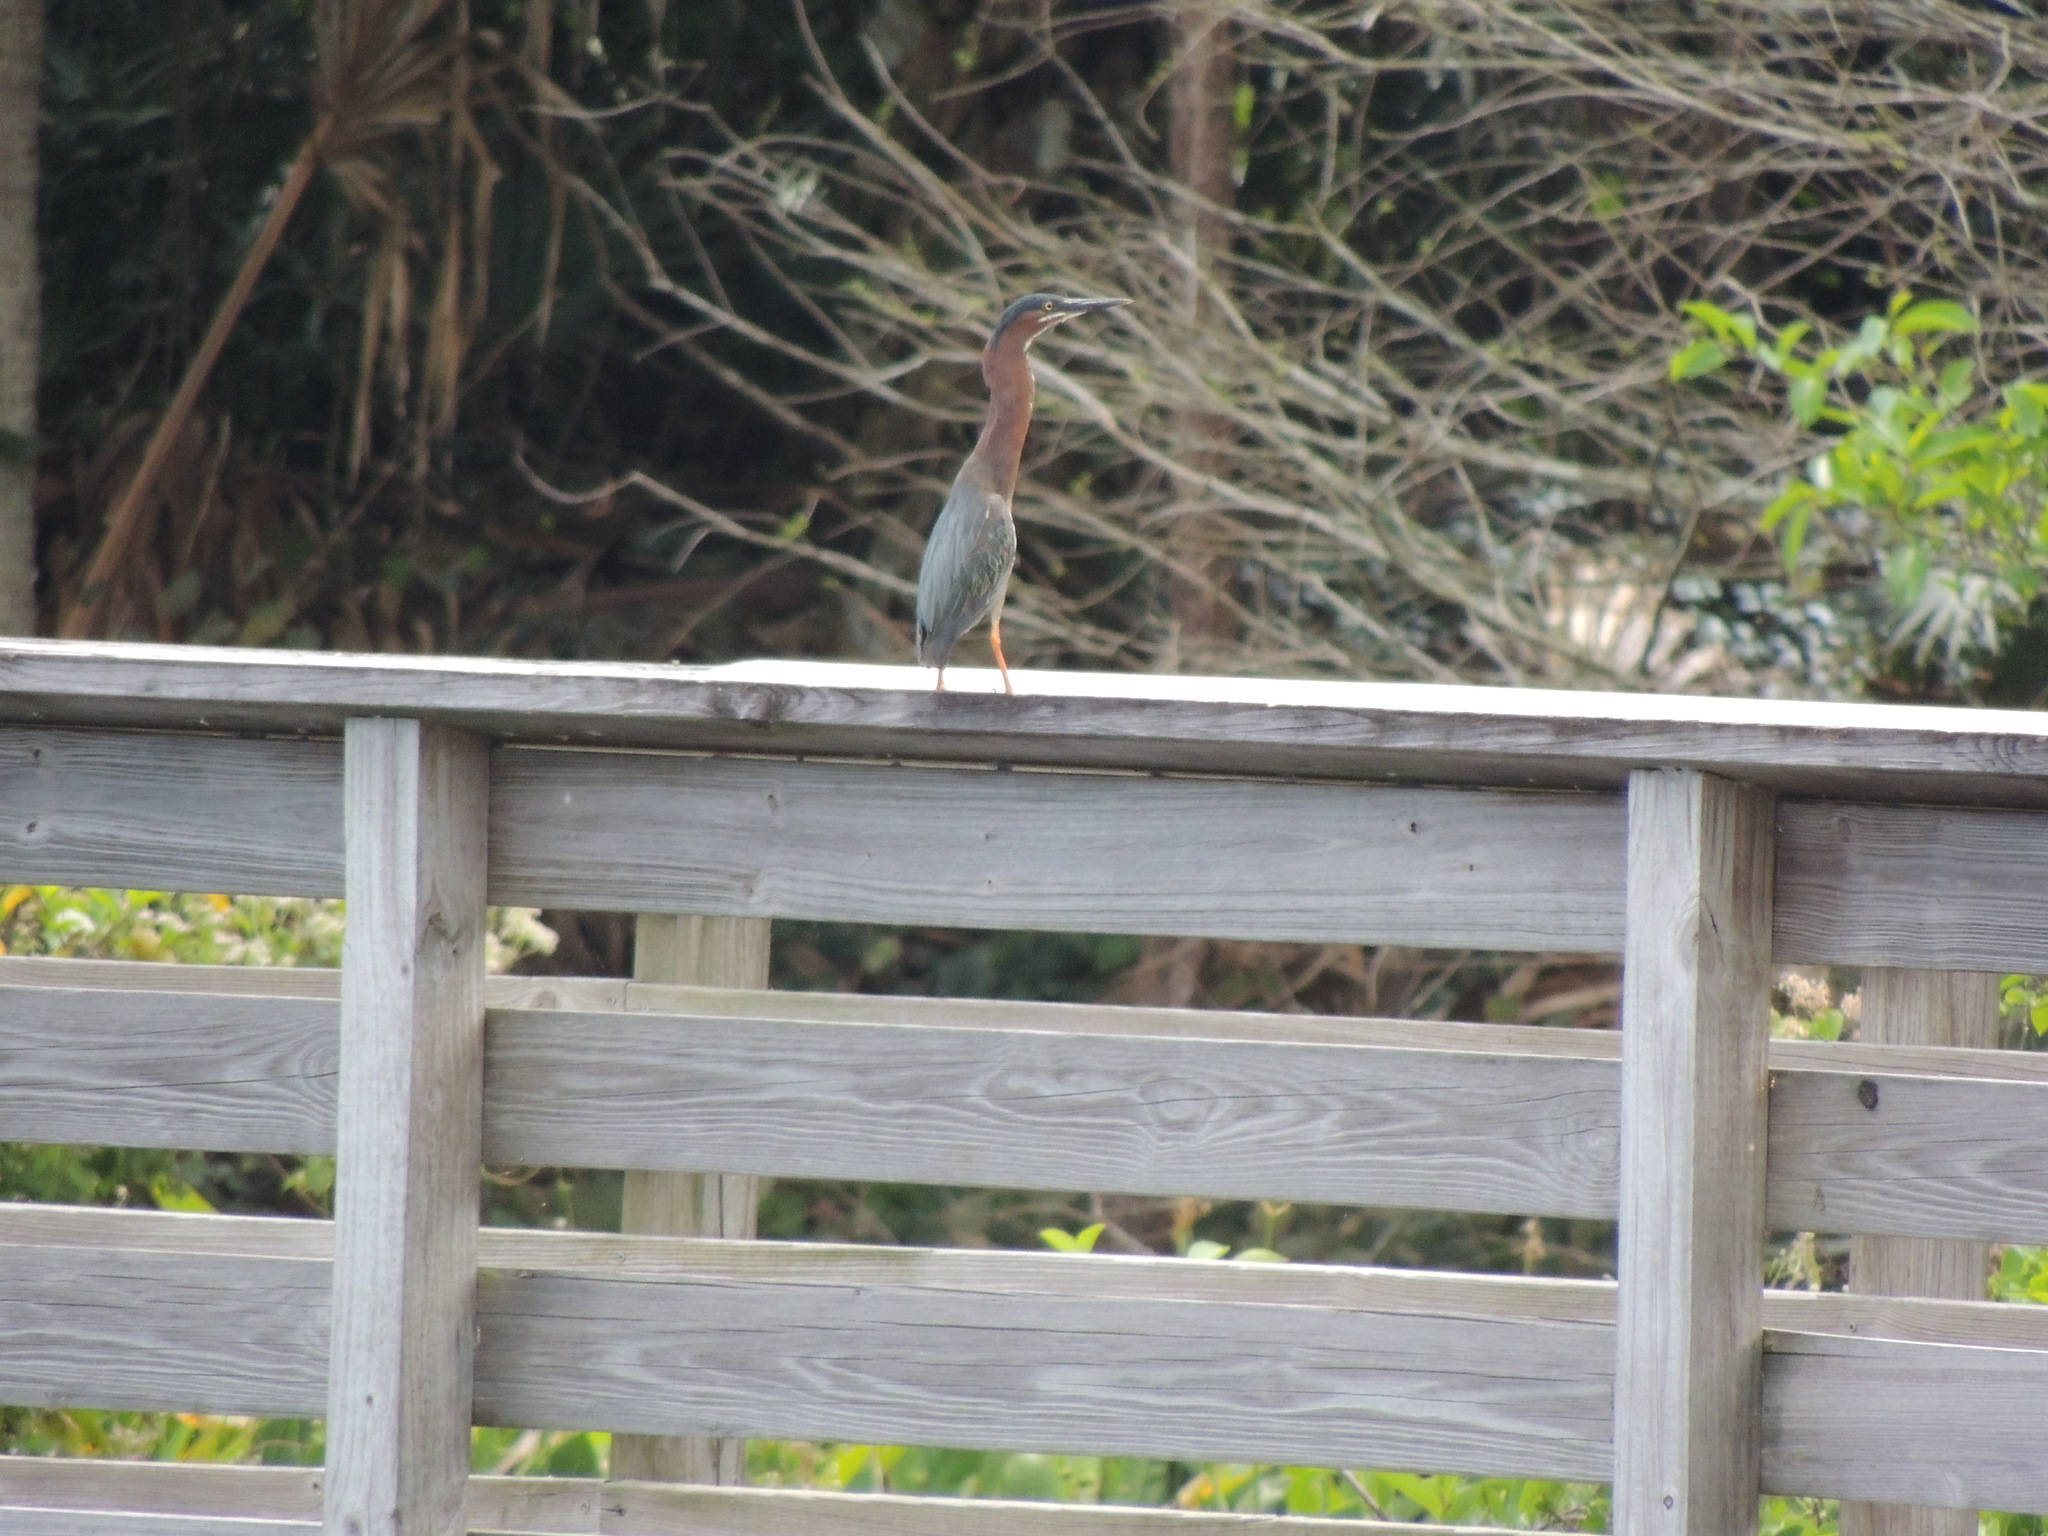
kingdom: Animalia
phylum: Chordata
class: Aves
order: Pelecaniformes
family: Ardeidae
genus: Butorides
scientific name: Butorides virescens
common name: Green heron
